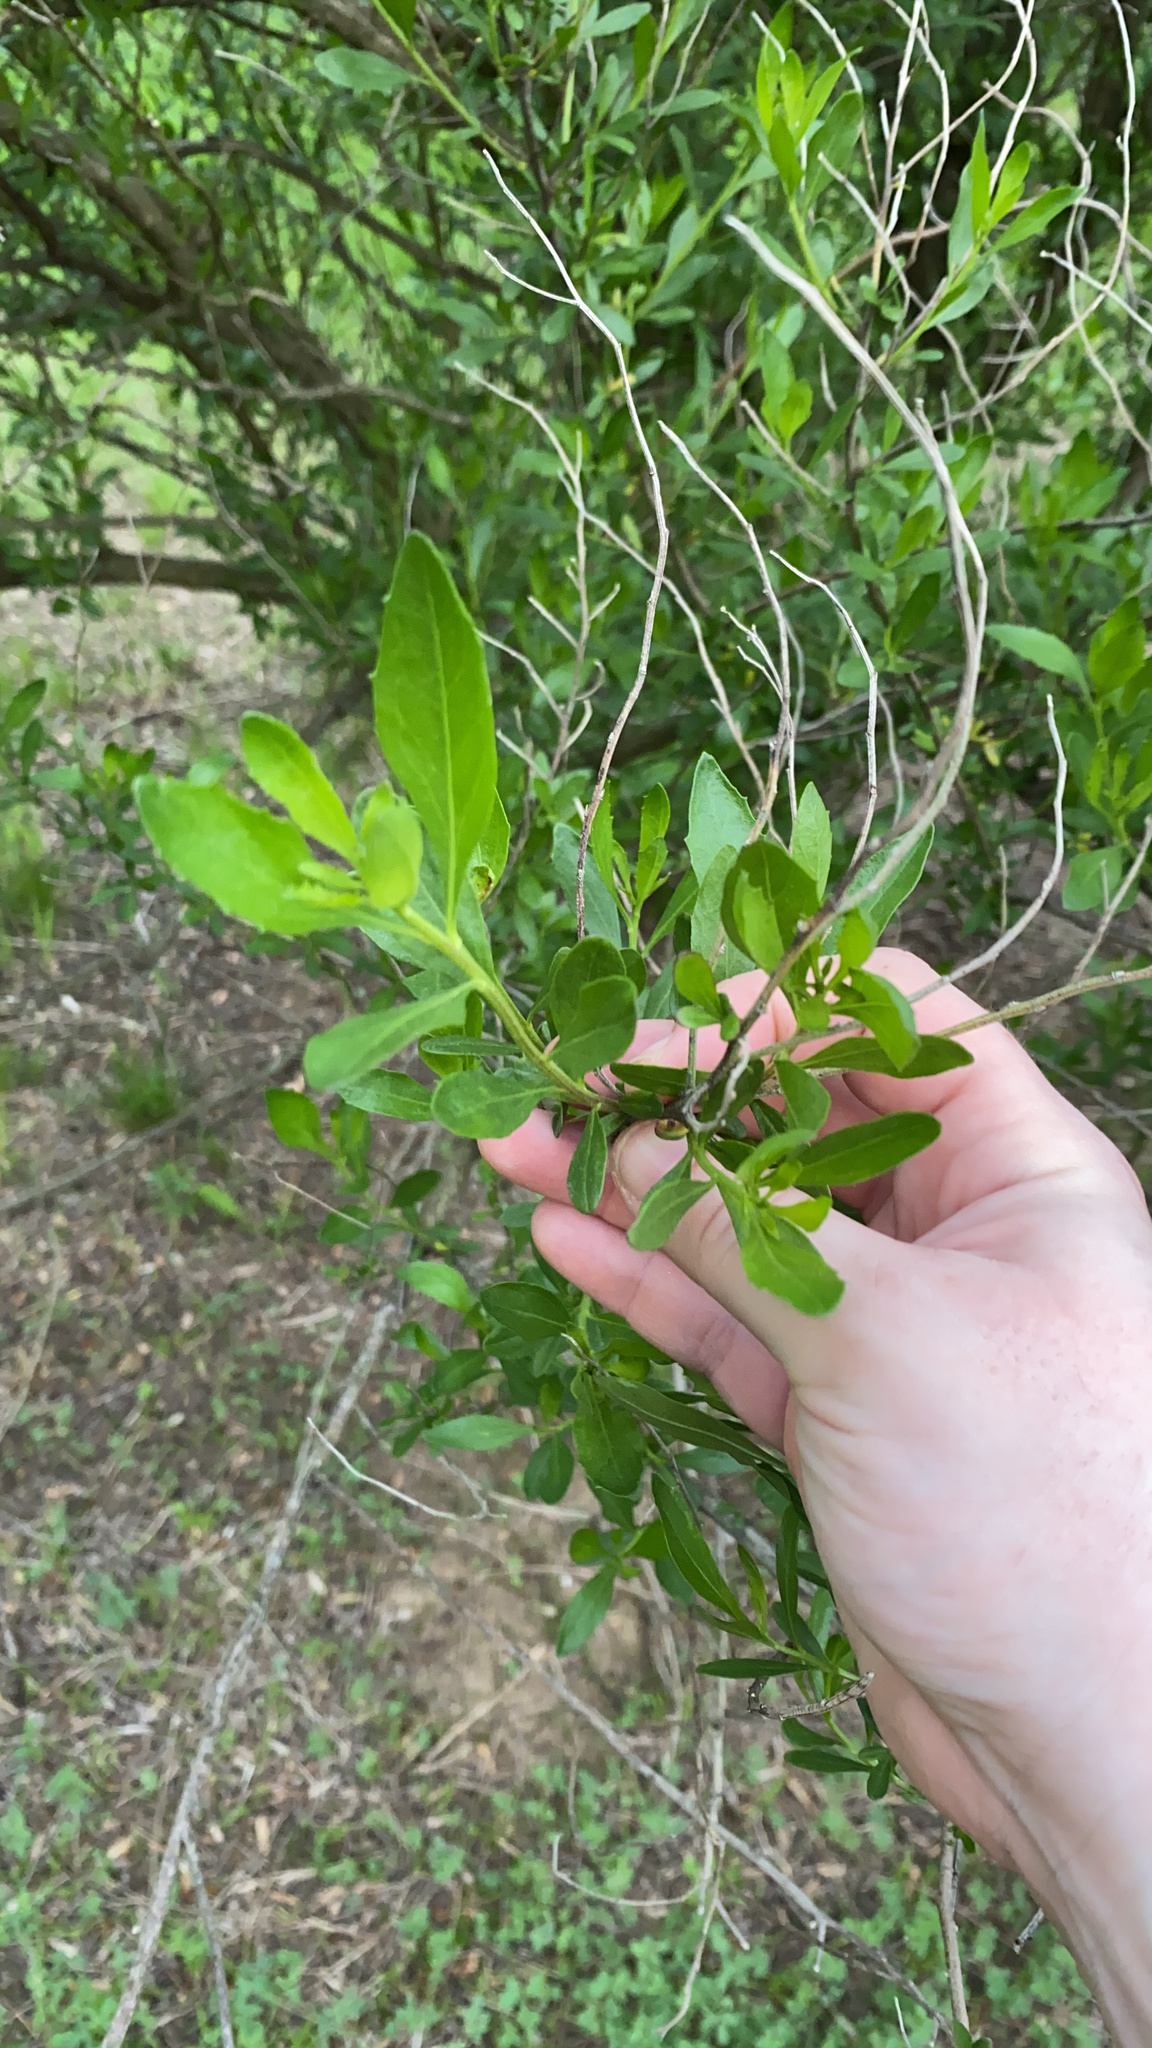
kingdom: Plantae
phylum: Tracheophyta
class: Magnoliopsida
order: Asterales
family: Asteraceae
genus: Baccharis
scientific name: Baccharis halimifolia
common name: Eastern baccharis
